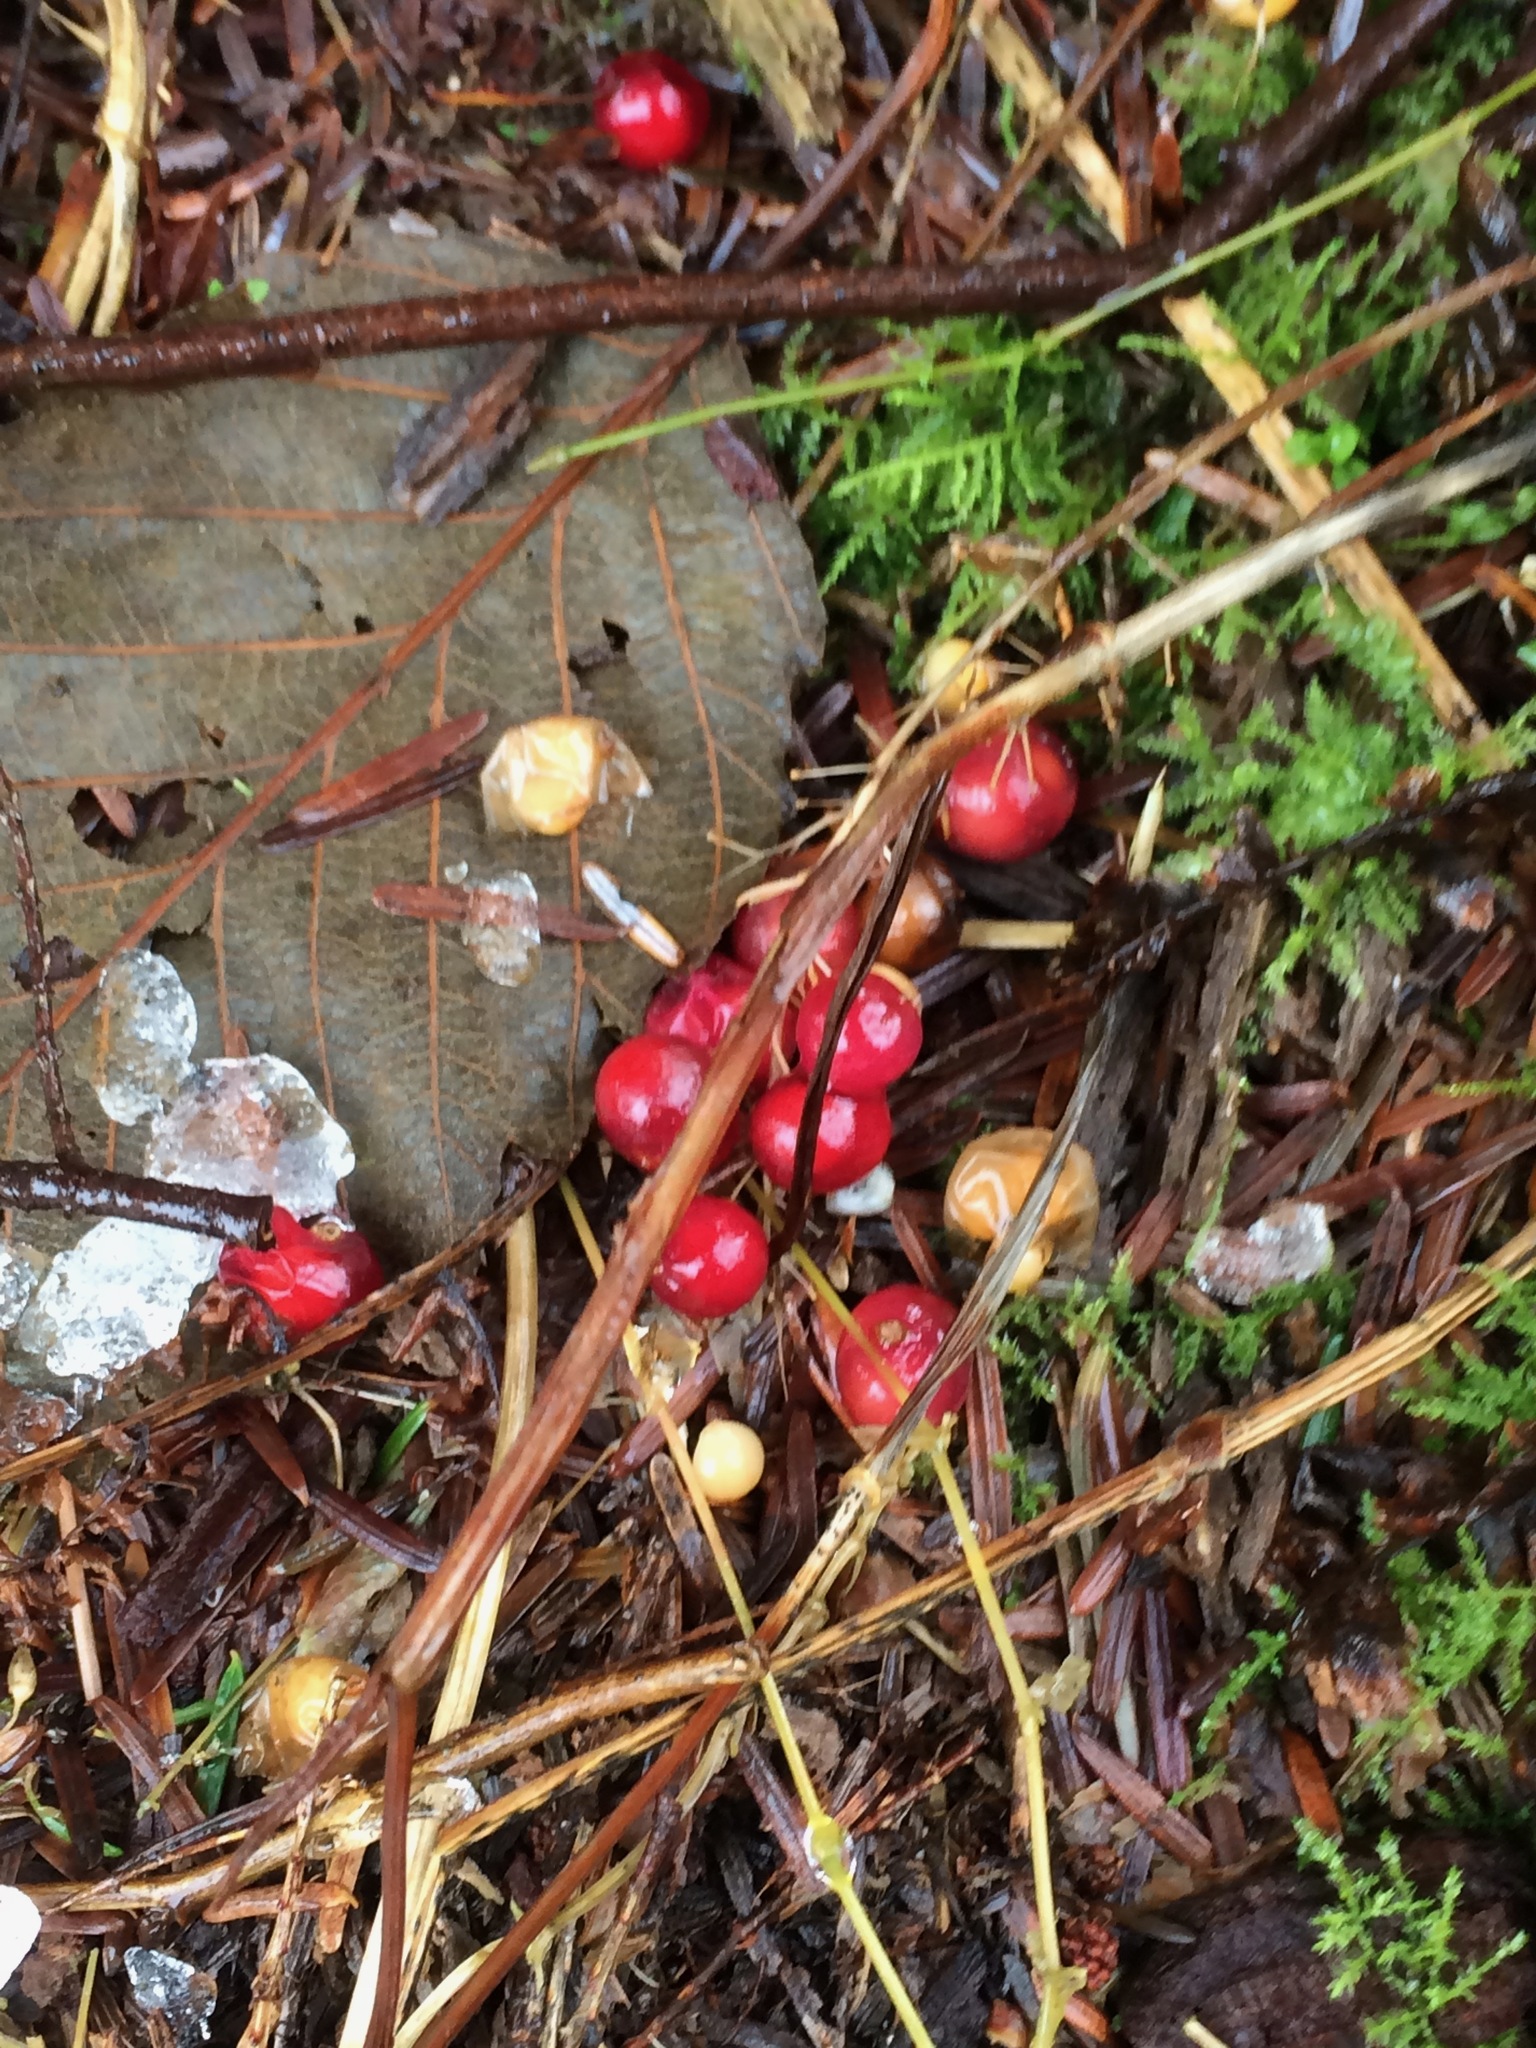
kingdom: Plantae
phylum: Tracheophyta
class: Liliopsida
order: Asparagales
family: Asparagaceae
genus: Maianthemum
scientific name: Maianthemum dilatatum
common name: False lily-of-the-valley
